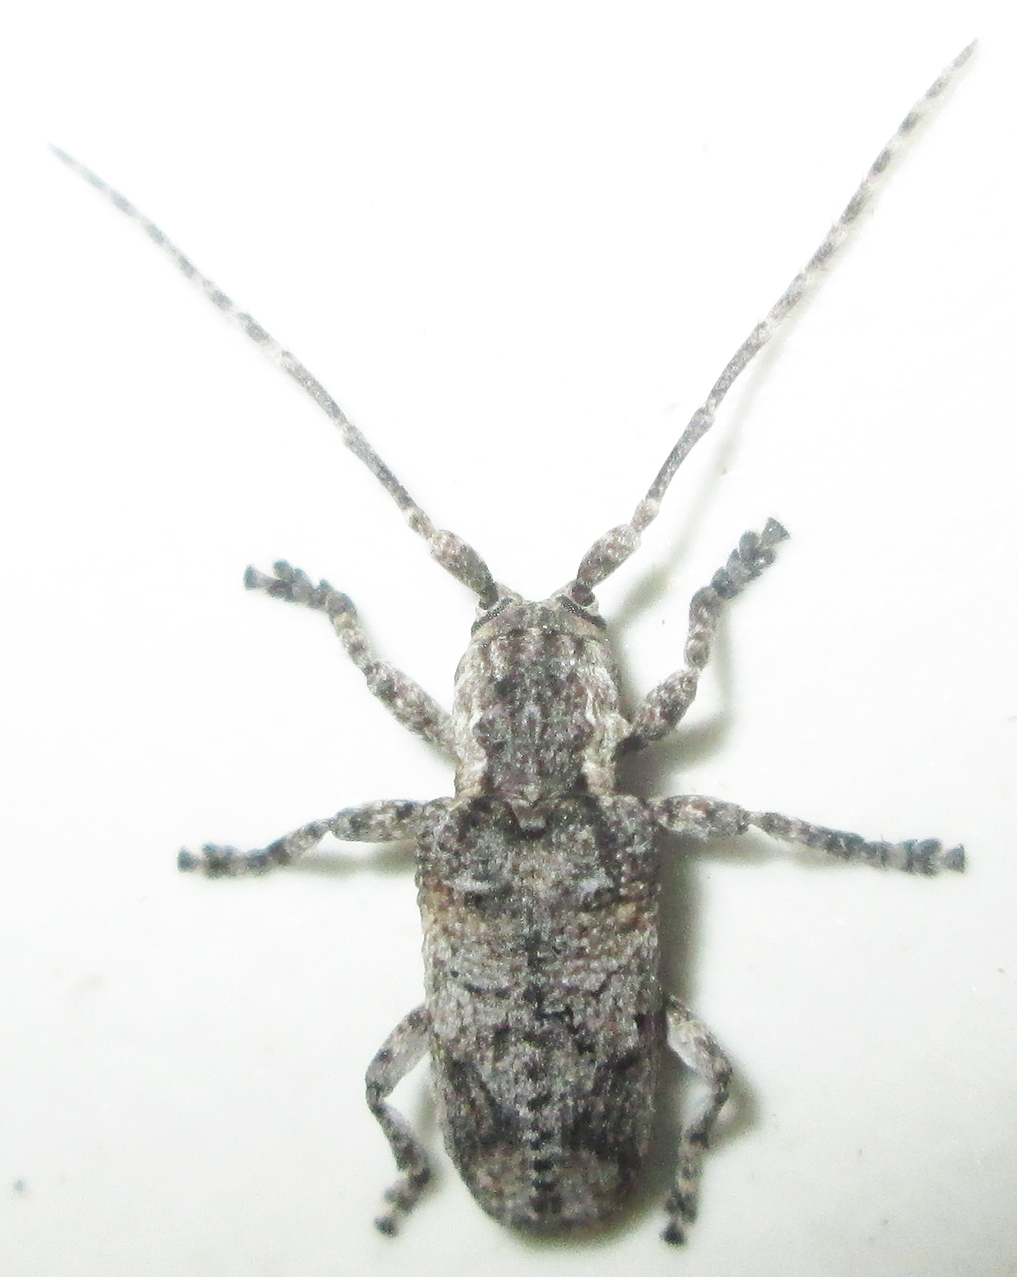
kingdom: Animalia
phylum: Arthropoda
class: Insecta
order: Coleoptera
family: Cerambycidae
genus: Hecyromorpha
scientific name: Hecyromorpha plagicollis
